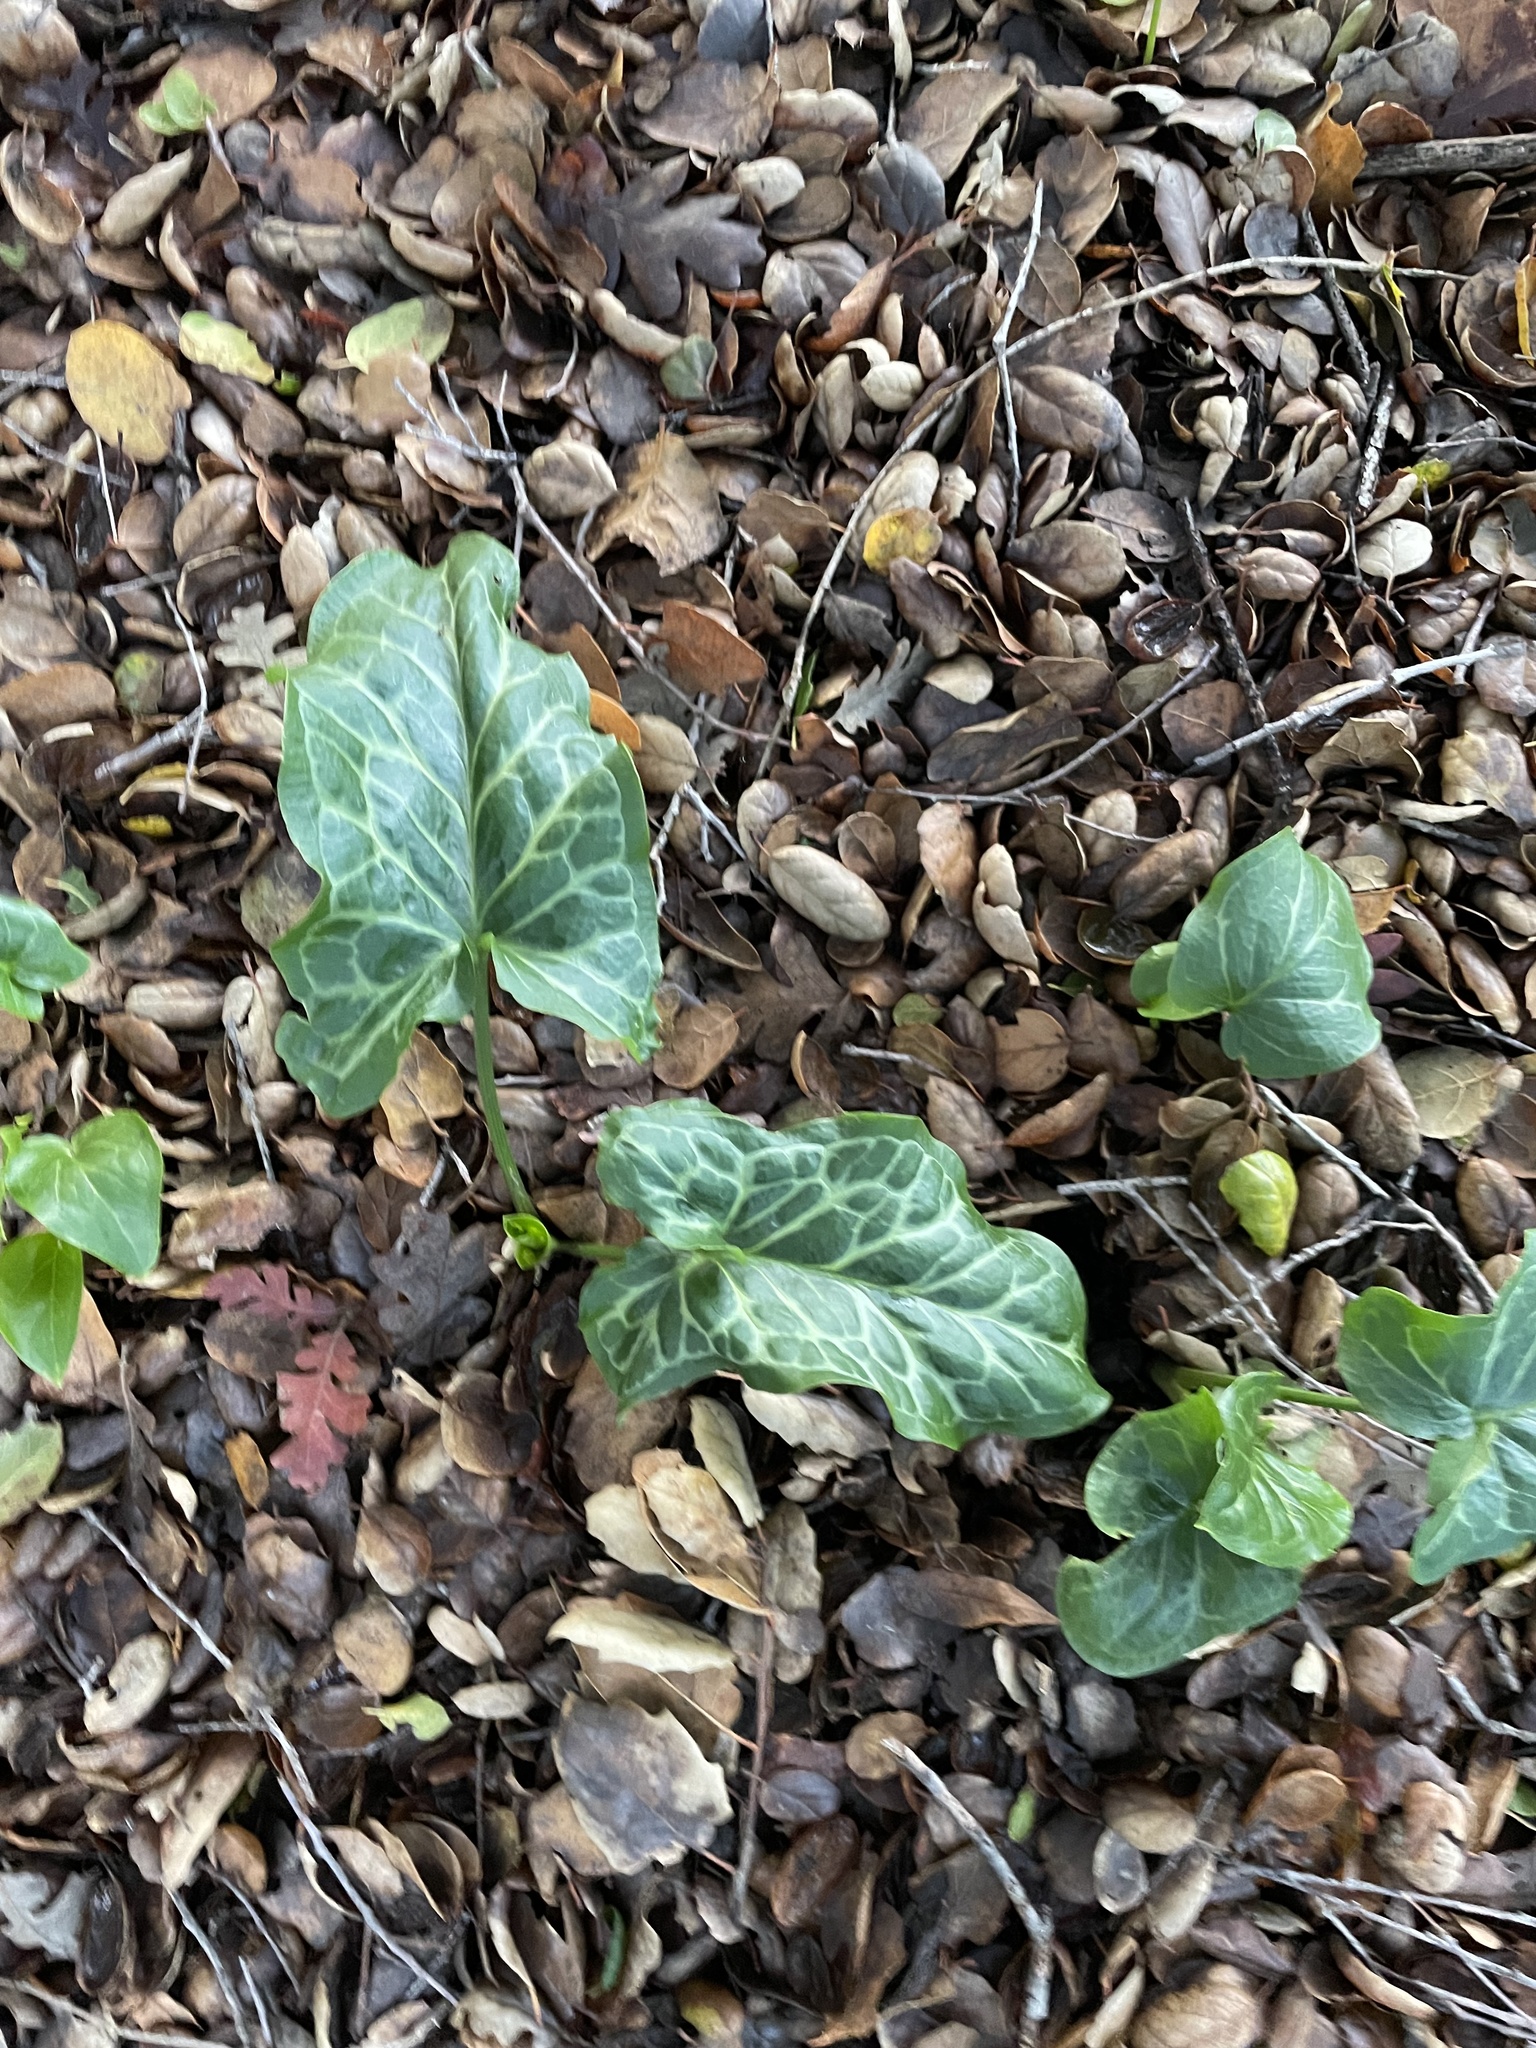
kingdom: Plantae
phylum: Tracheophyta
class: Liliopsida
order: Alismatales
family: Araceae
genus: Arum
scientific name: Arum italicum
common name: Italian lords-and-ladies
